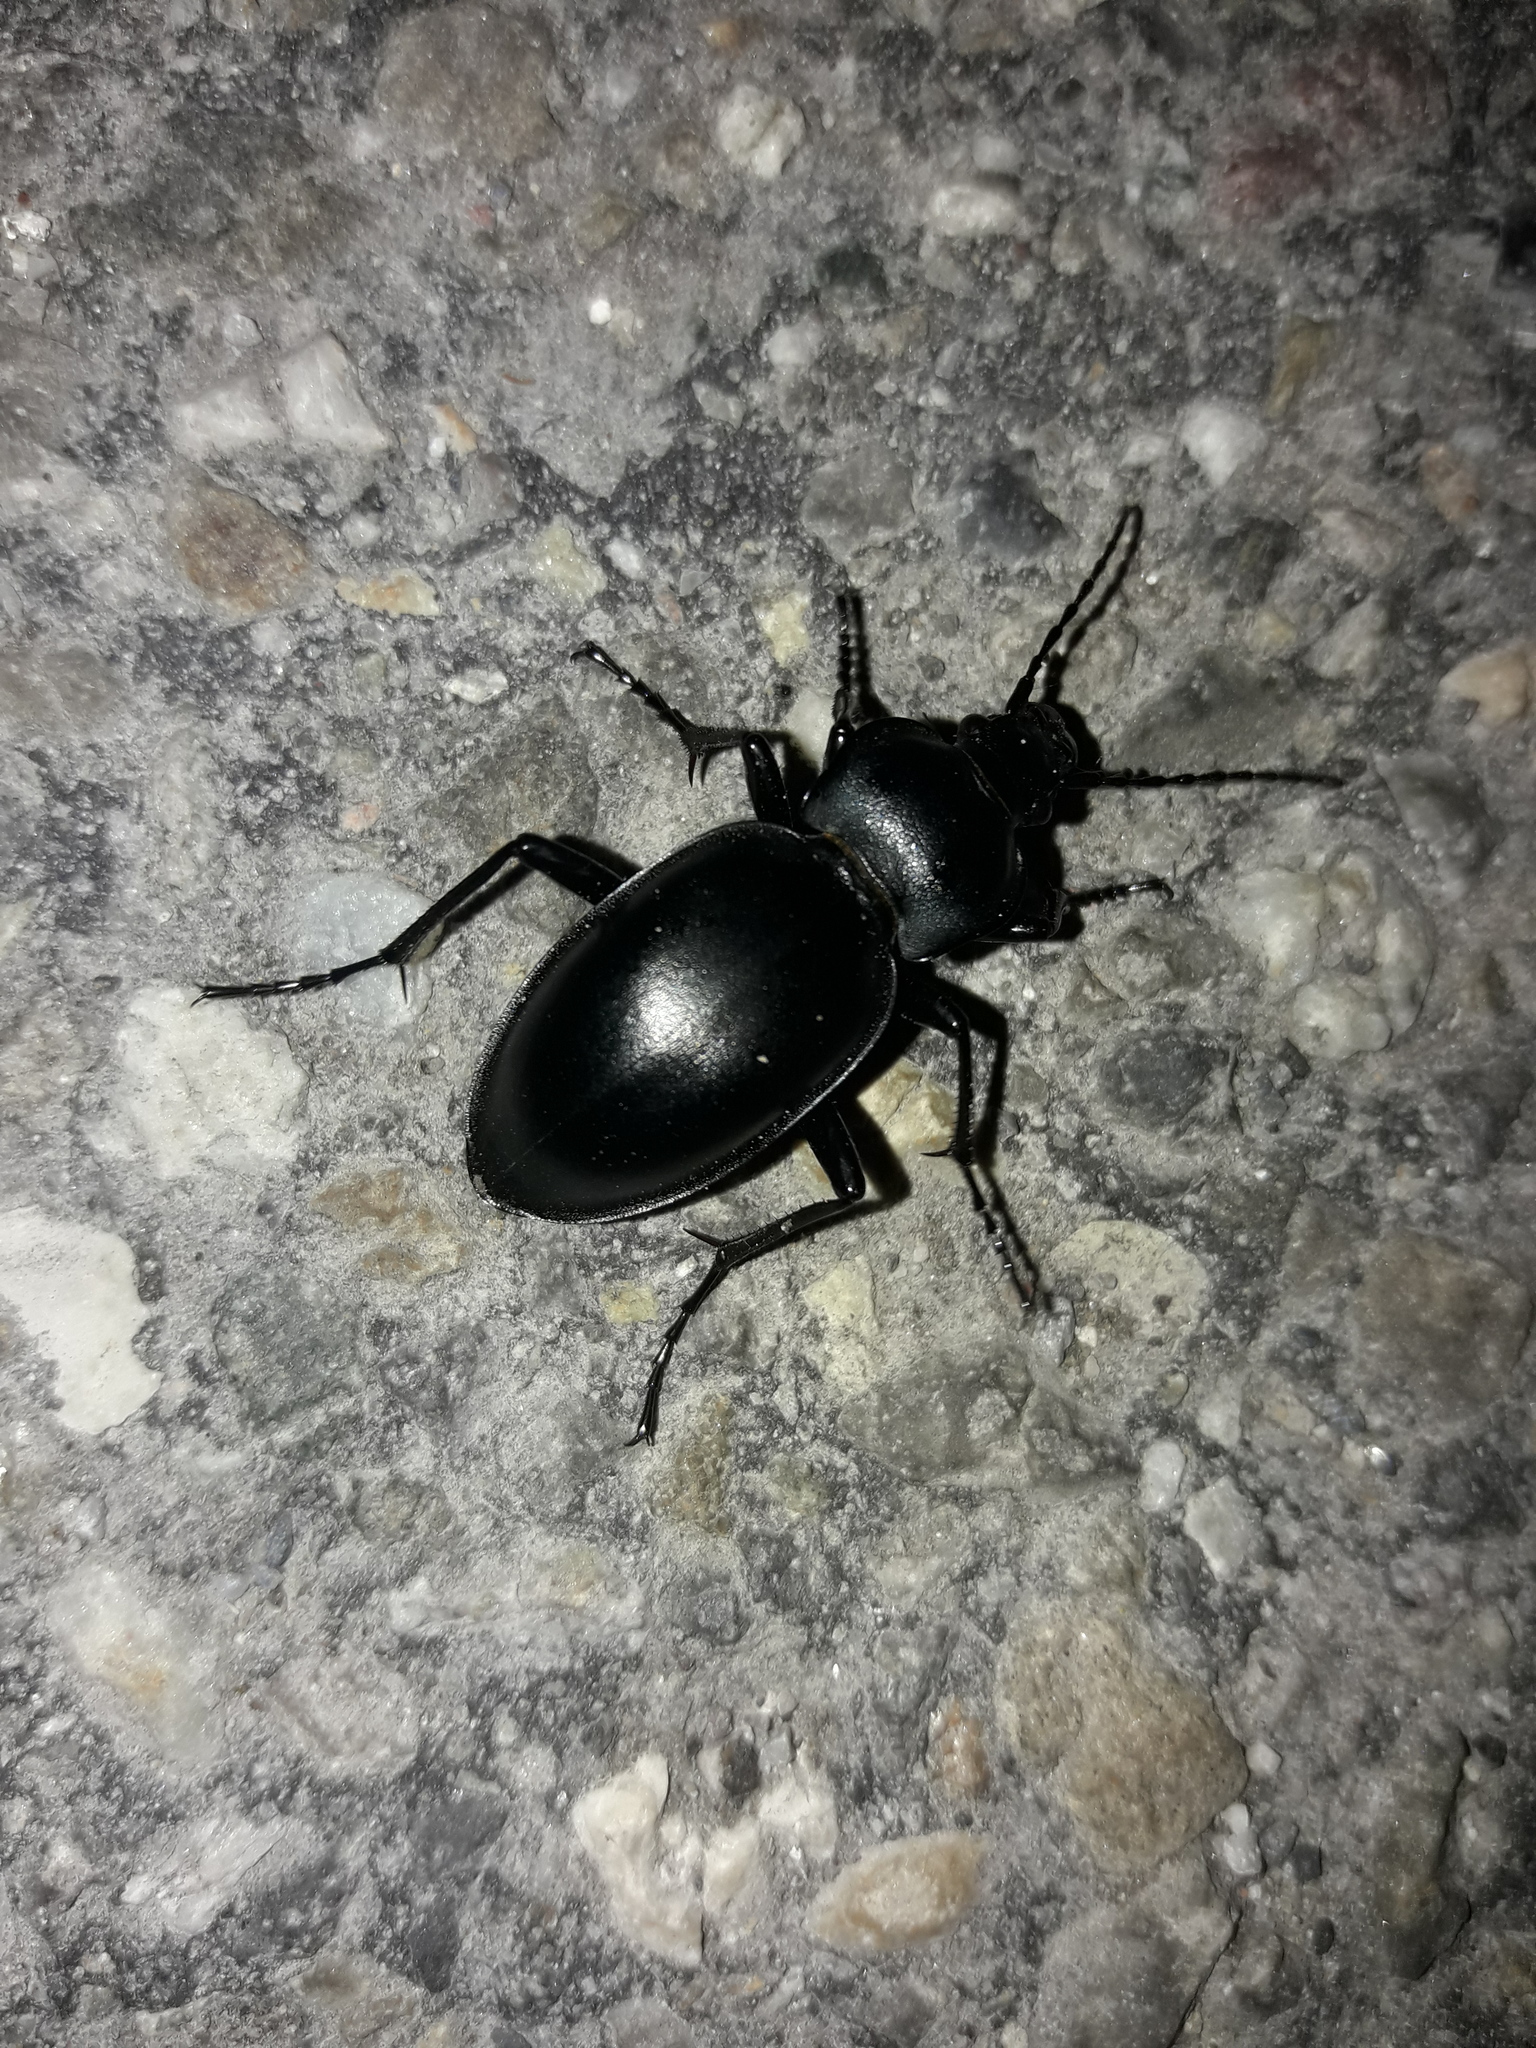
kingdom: Animalia
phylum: Arthropoda
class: Insecta
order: Coleoptera
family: Carabidae
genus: Carabus
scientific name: Carabus glabratus
